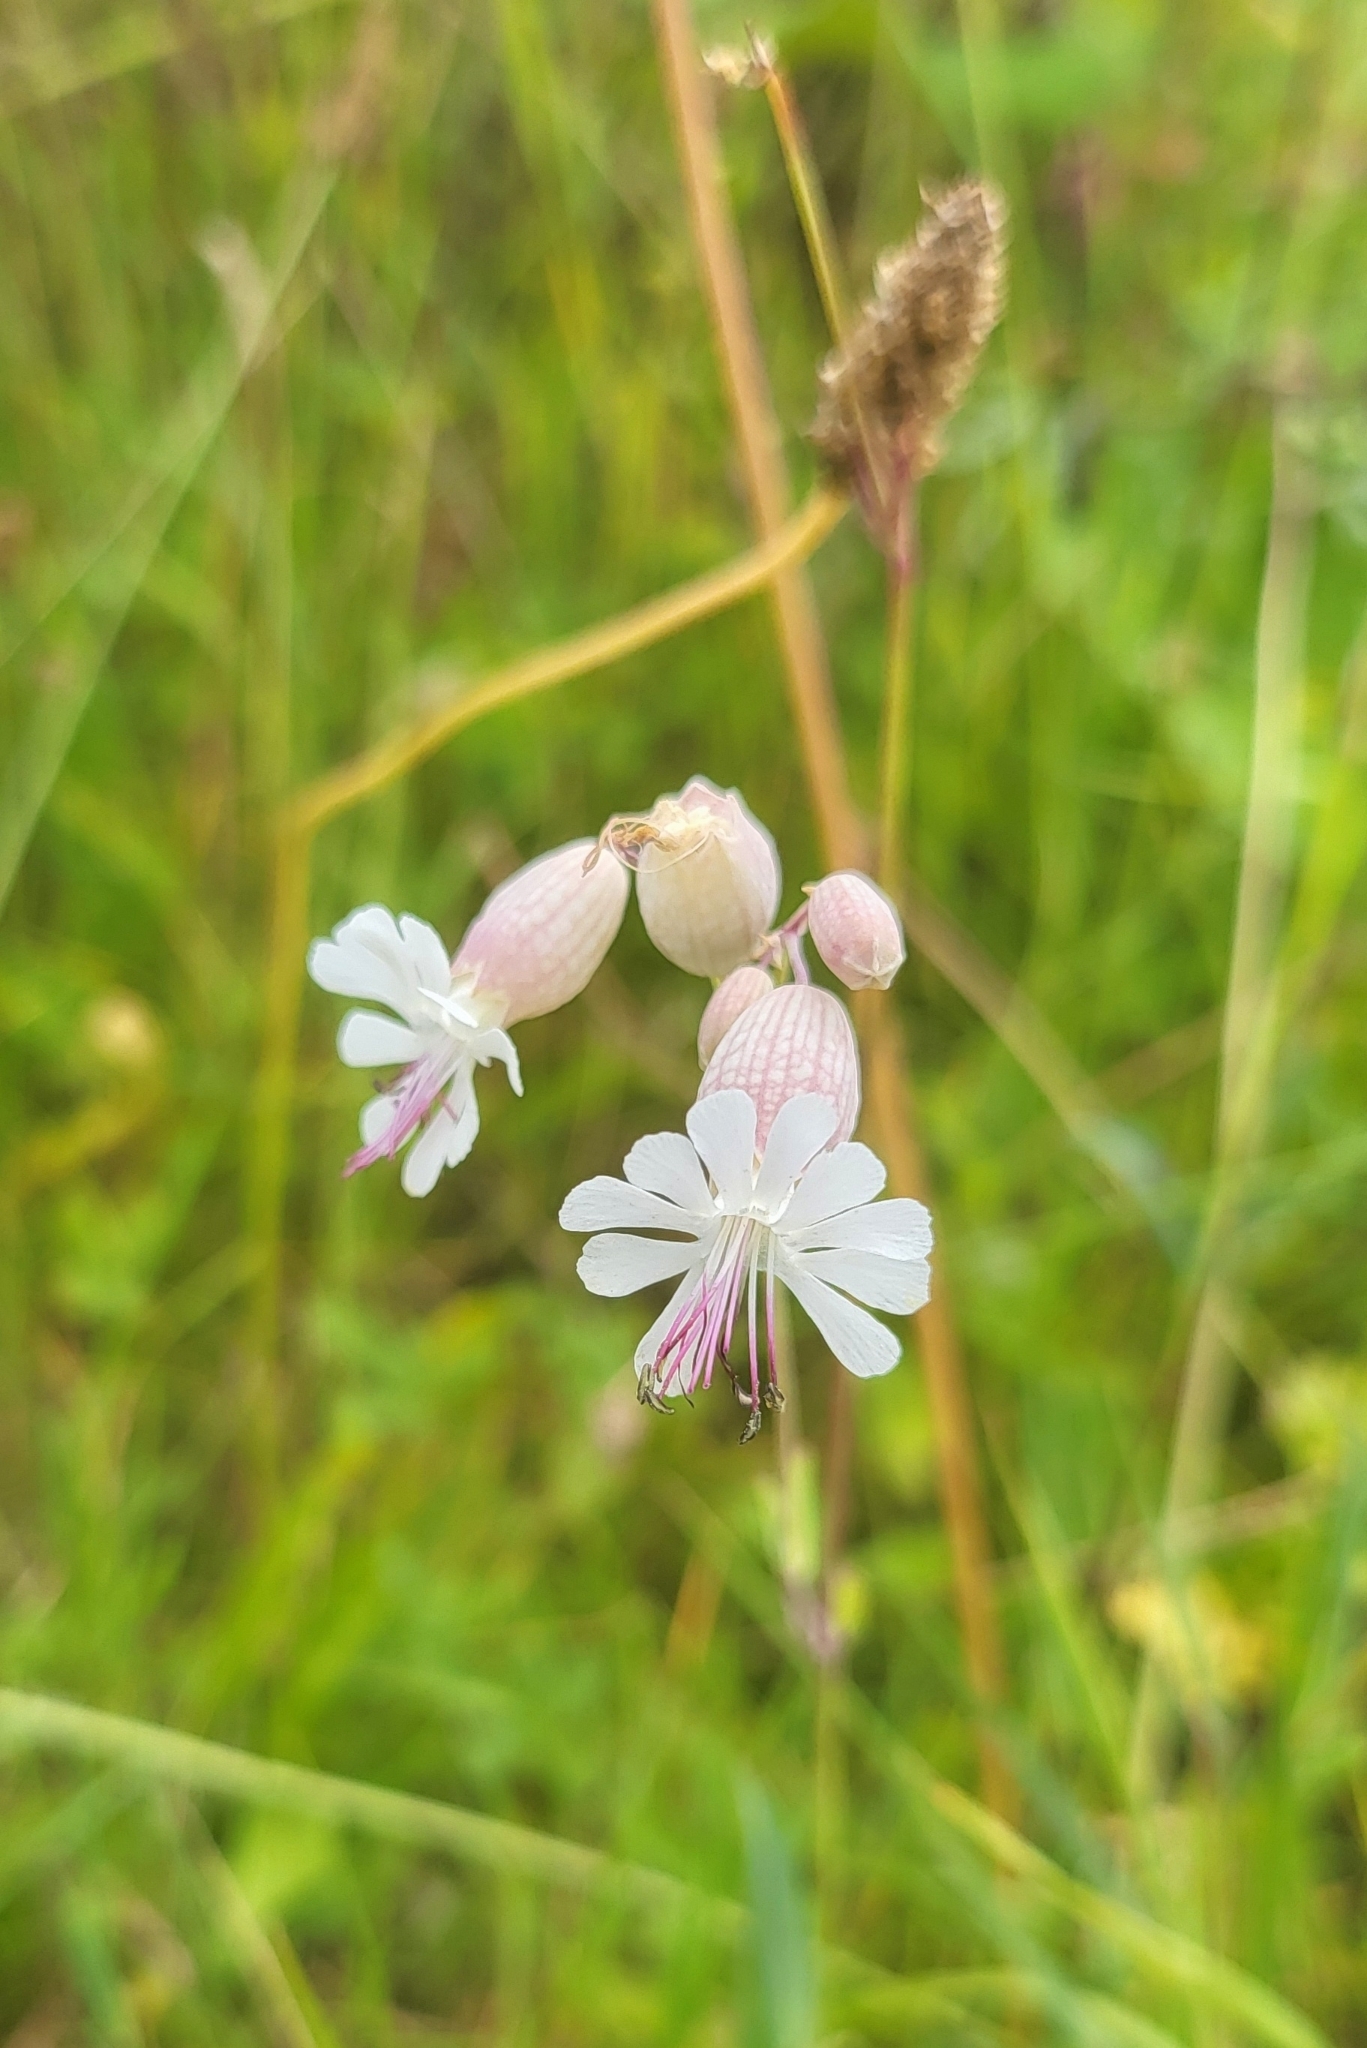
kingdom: Plantae
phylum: Tracheophyta
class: Magnoliopsida
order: Caryophyllales
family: Caryophyllaceae
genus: Silene
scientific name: Silene vulgaris
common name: Bladder campion
